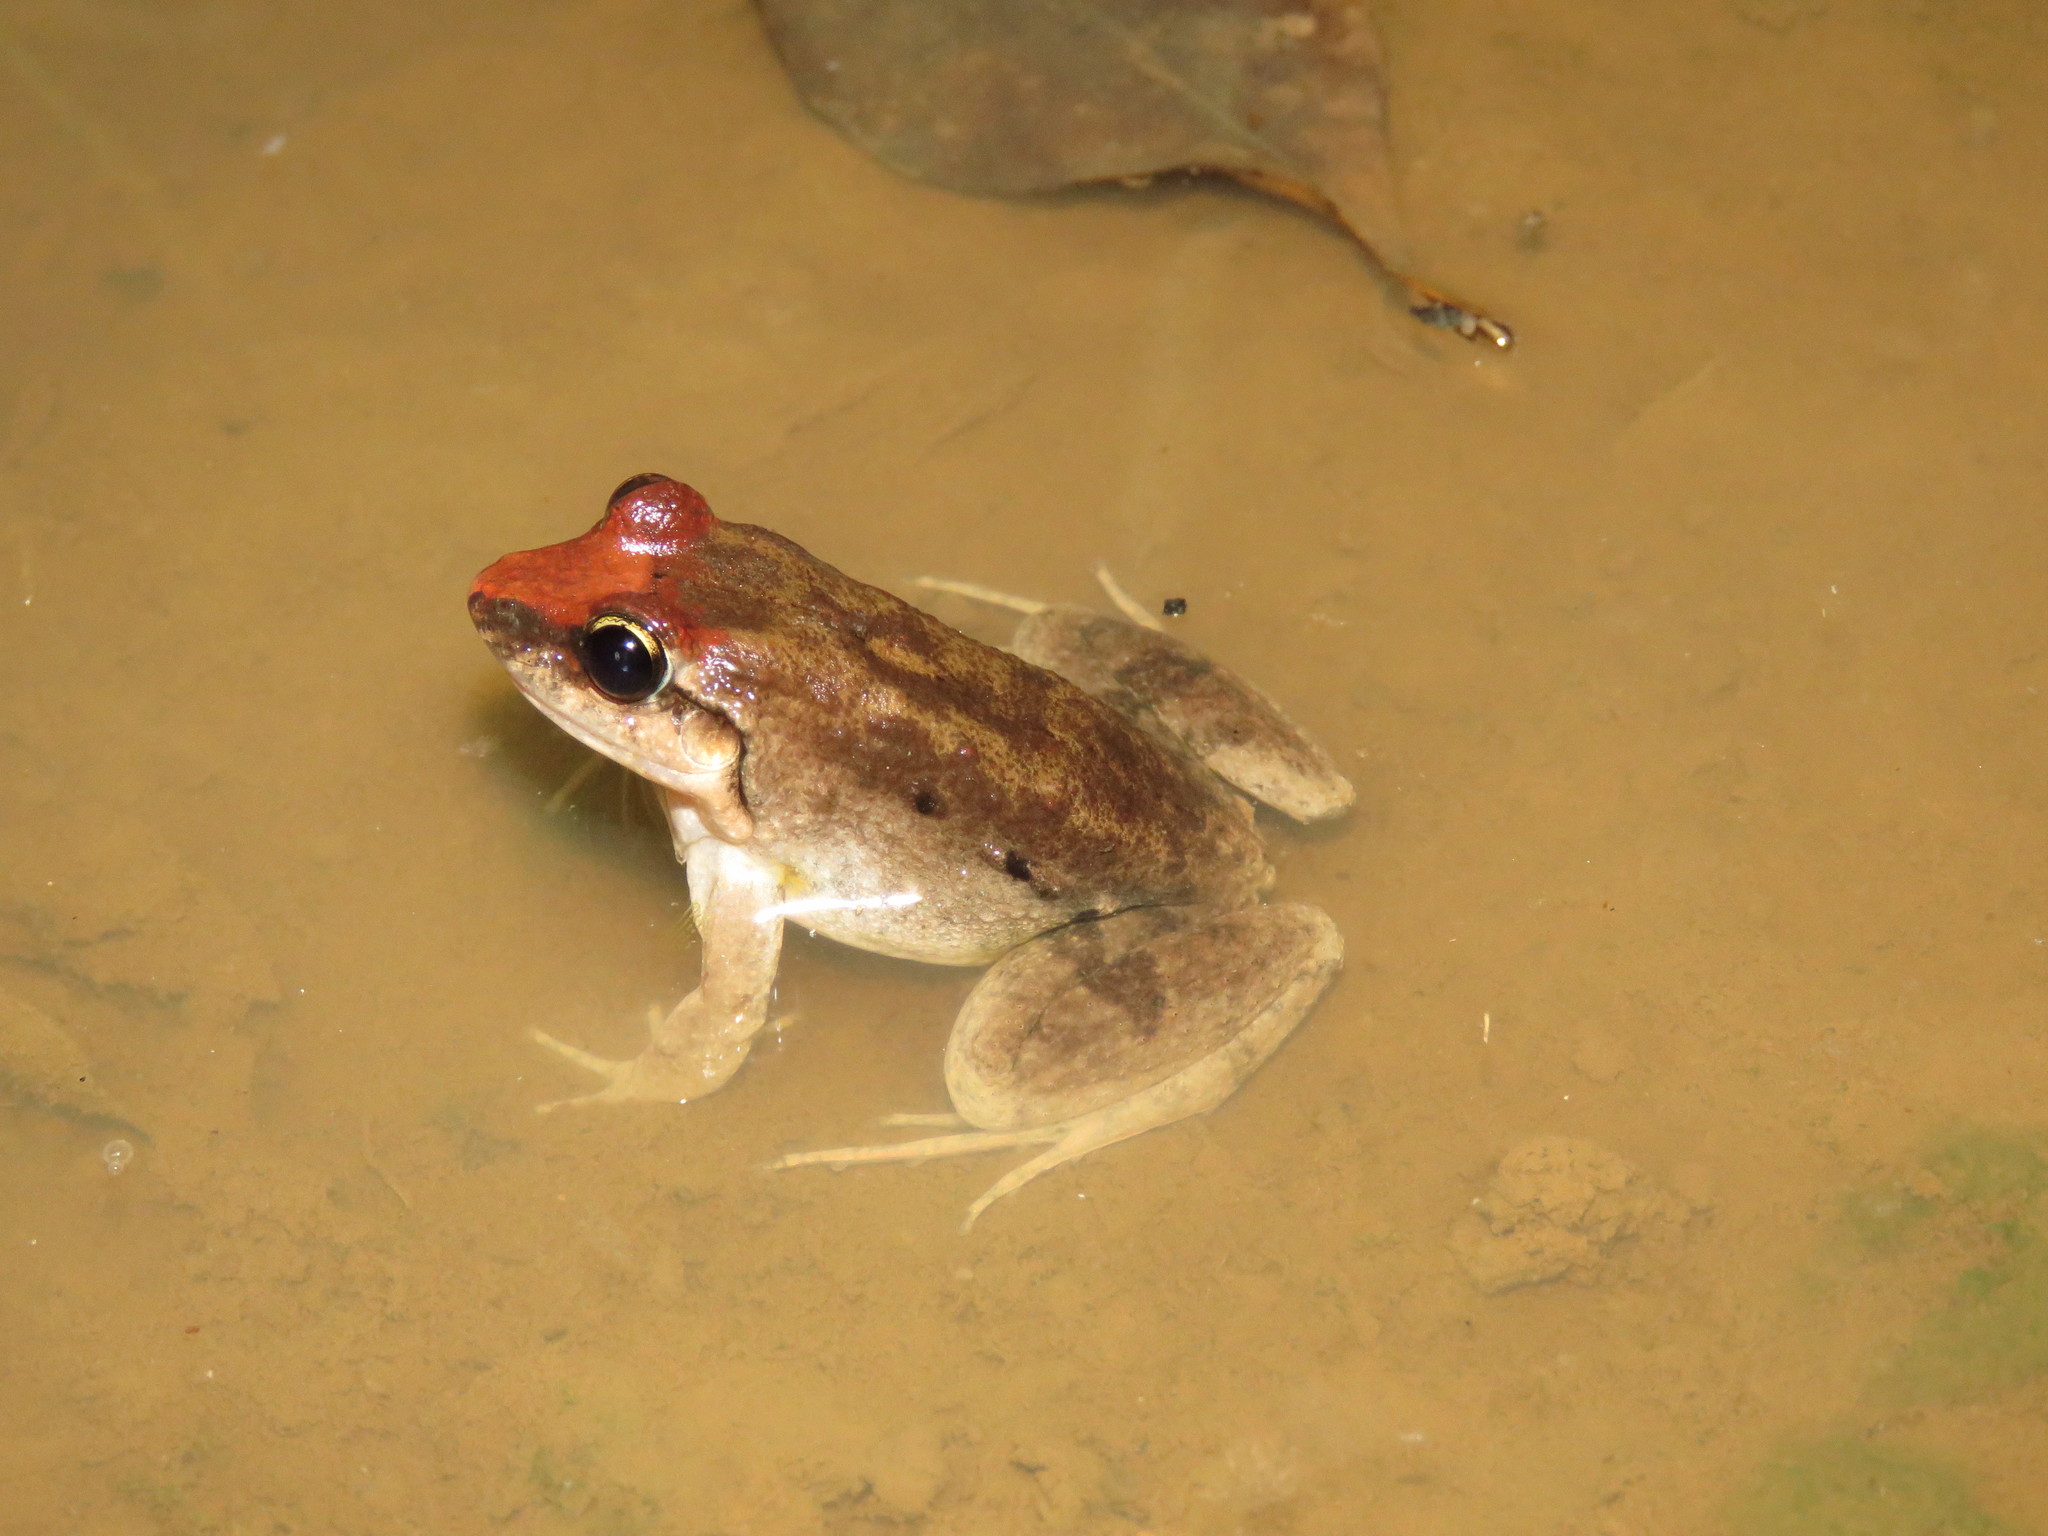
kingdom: Animalia
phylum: Chordata
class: Amphibia
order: Anura
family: Leptodactylidae
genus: Leptodactylus
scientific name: Leptodactylus petersii
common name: Peters' thin-toed frog
